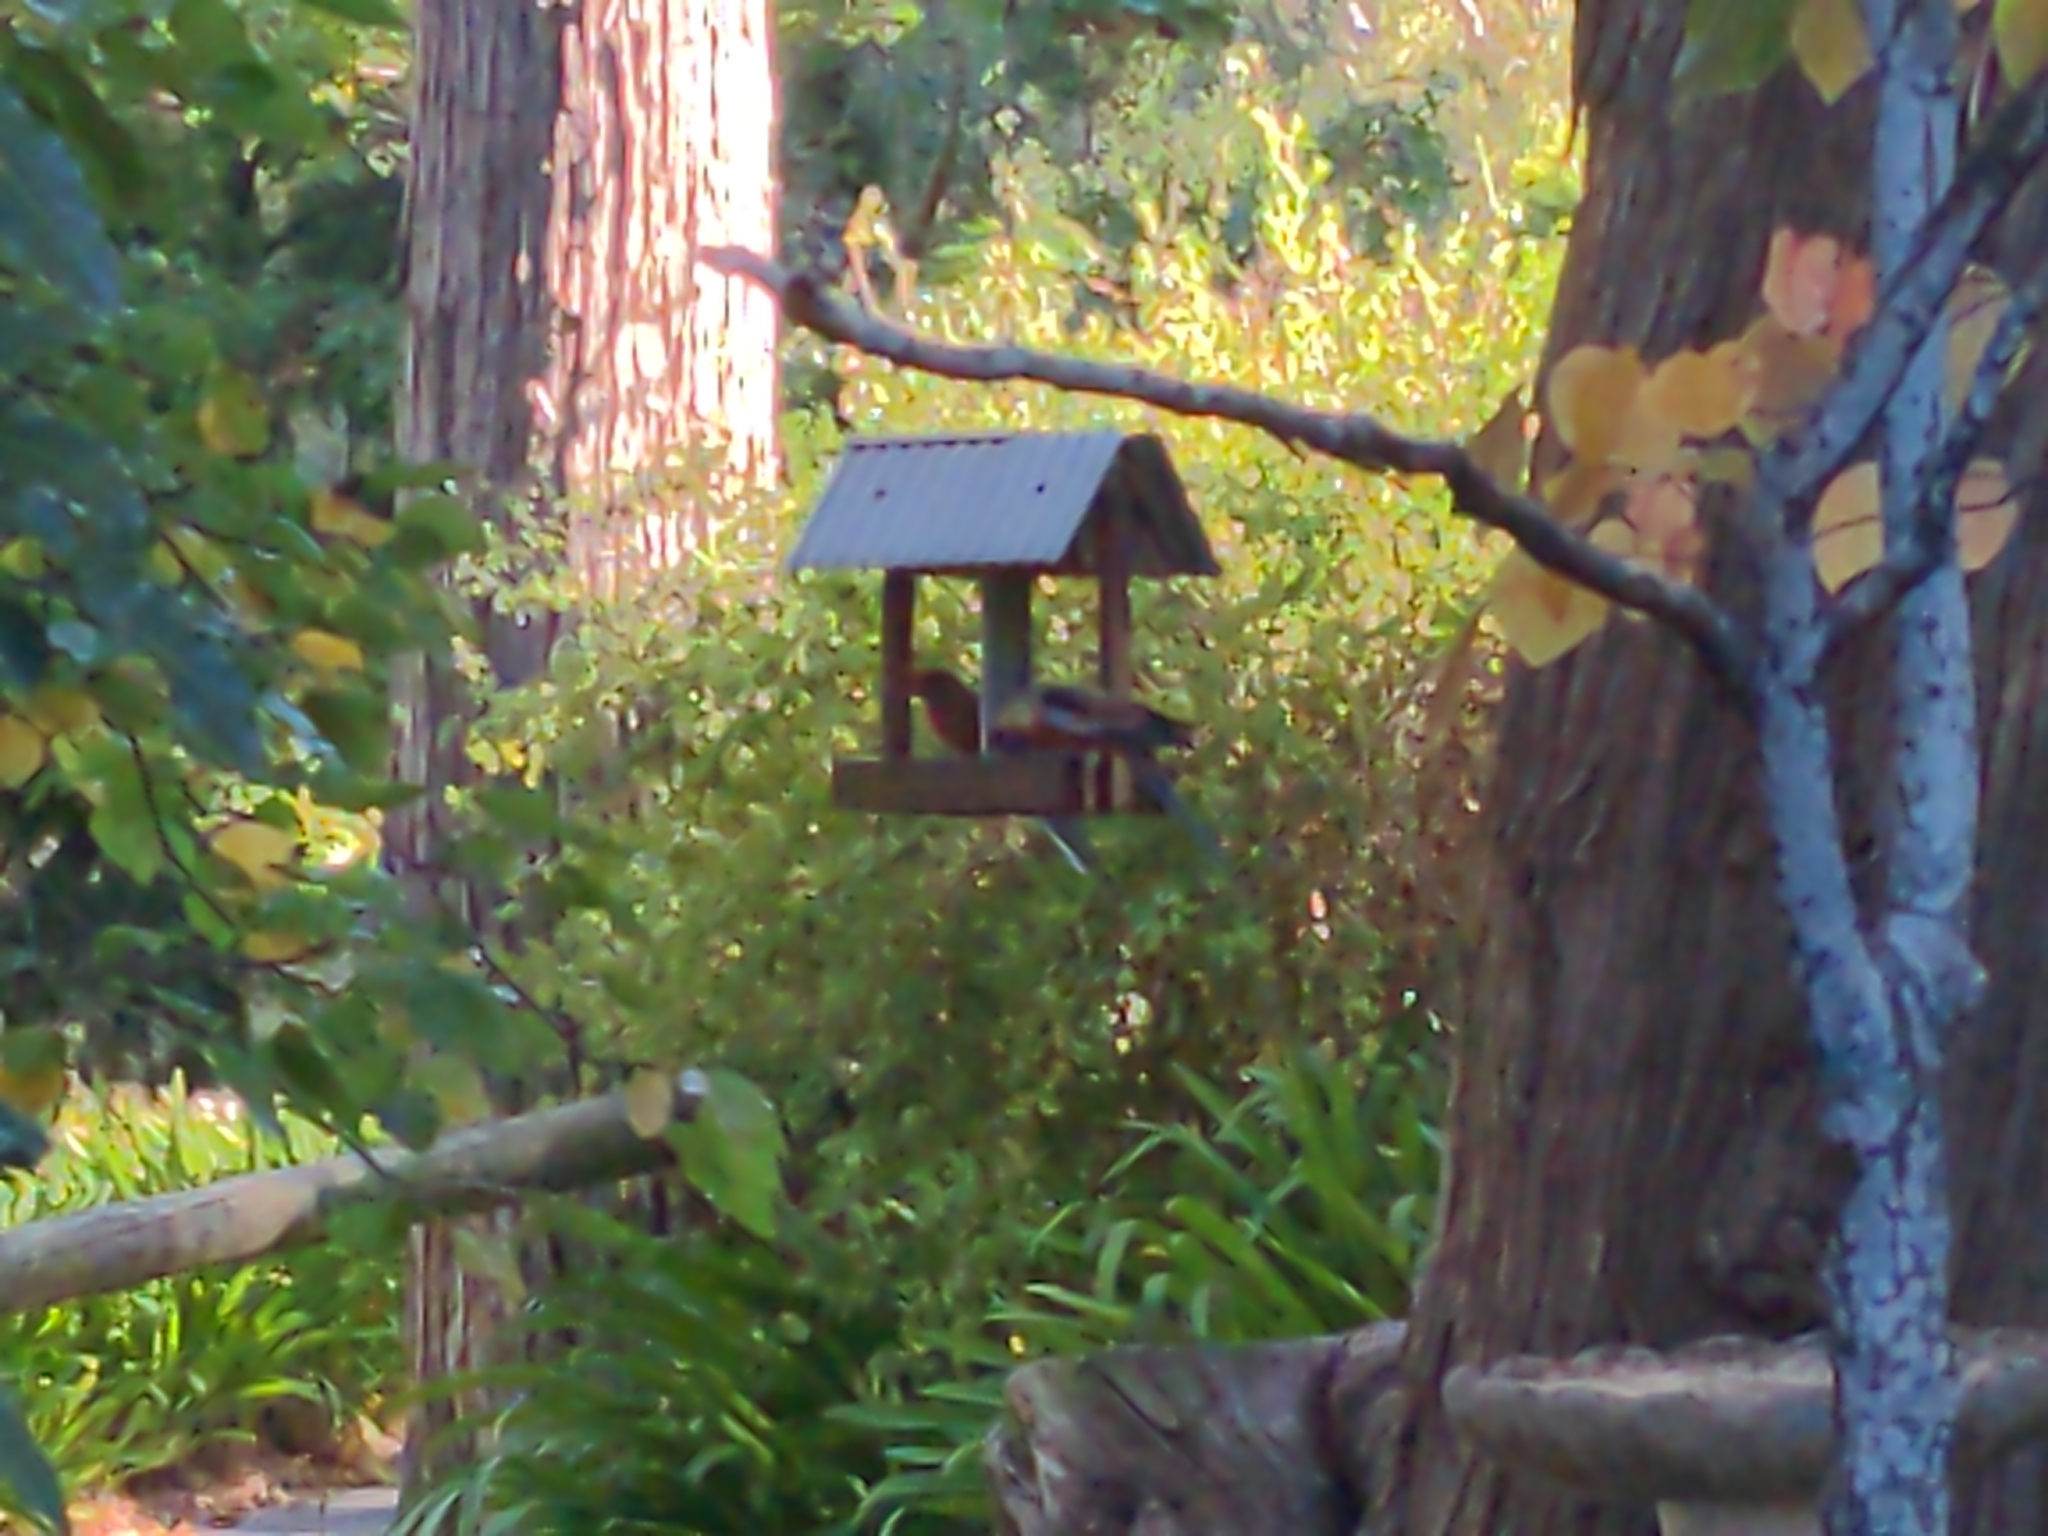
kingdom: Animalia
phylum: Chordata
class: Aves
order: Psittaciformes
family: Psittacidae
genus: Platycercus
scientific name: Platycercus elegans
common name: Crimson rosella
